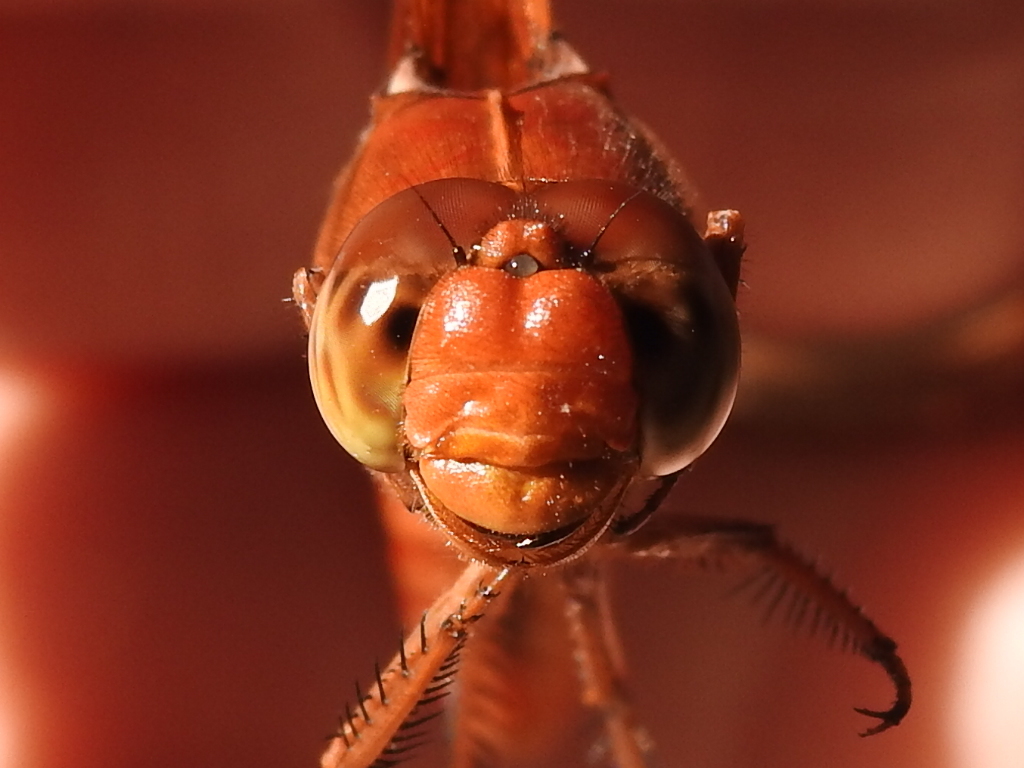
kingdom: Animalia
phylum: Arthropoda
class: Insecta
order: Odonata
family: Libellulidae
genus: Libellula
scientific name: Libellula croceipennis
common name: Neon skimmer
